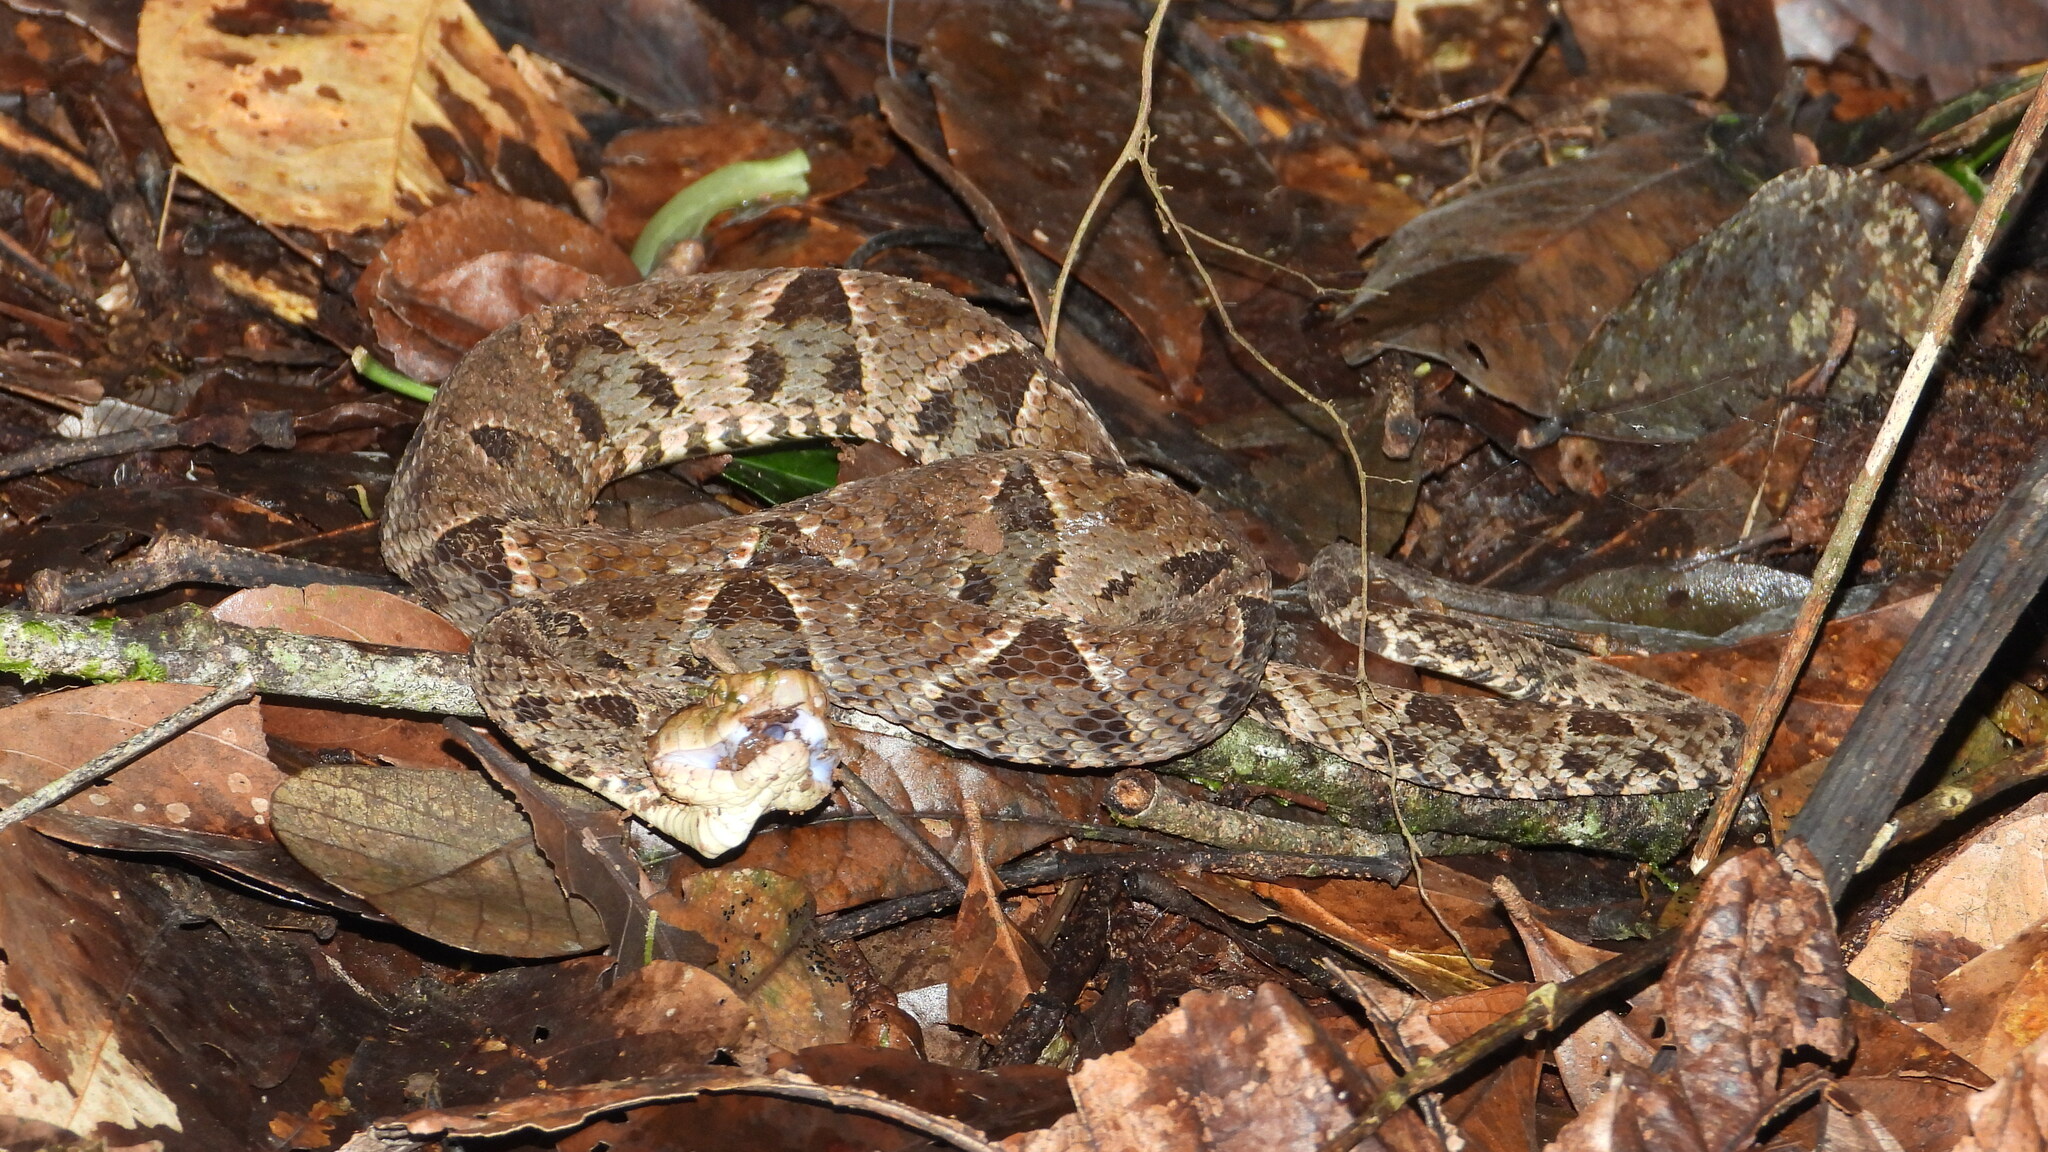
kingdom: Animalia
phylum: Chordata
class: Squamata
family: Viperidae
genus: Bothrops
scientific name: Bothrops asper
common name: Terciopelo
